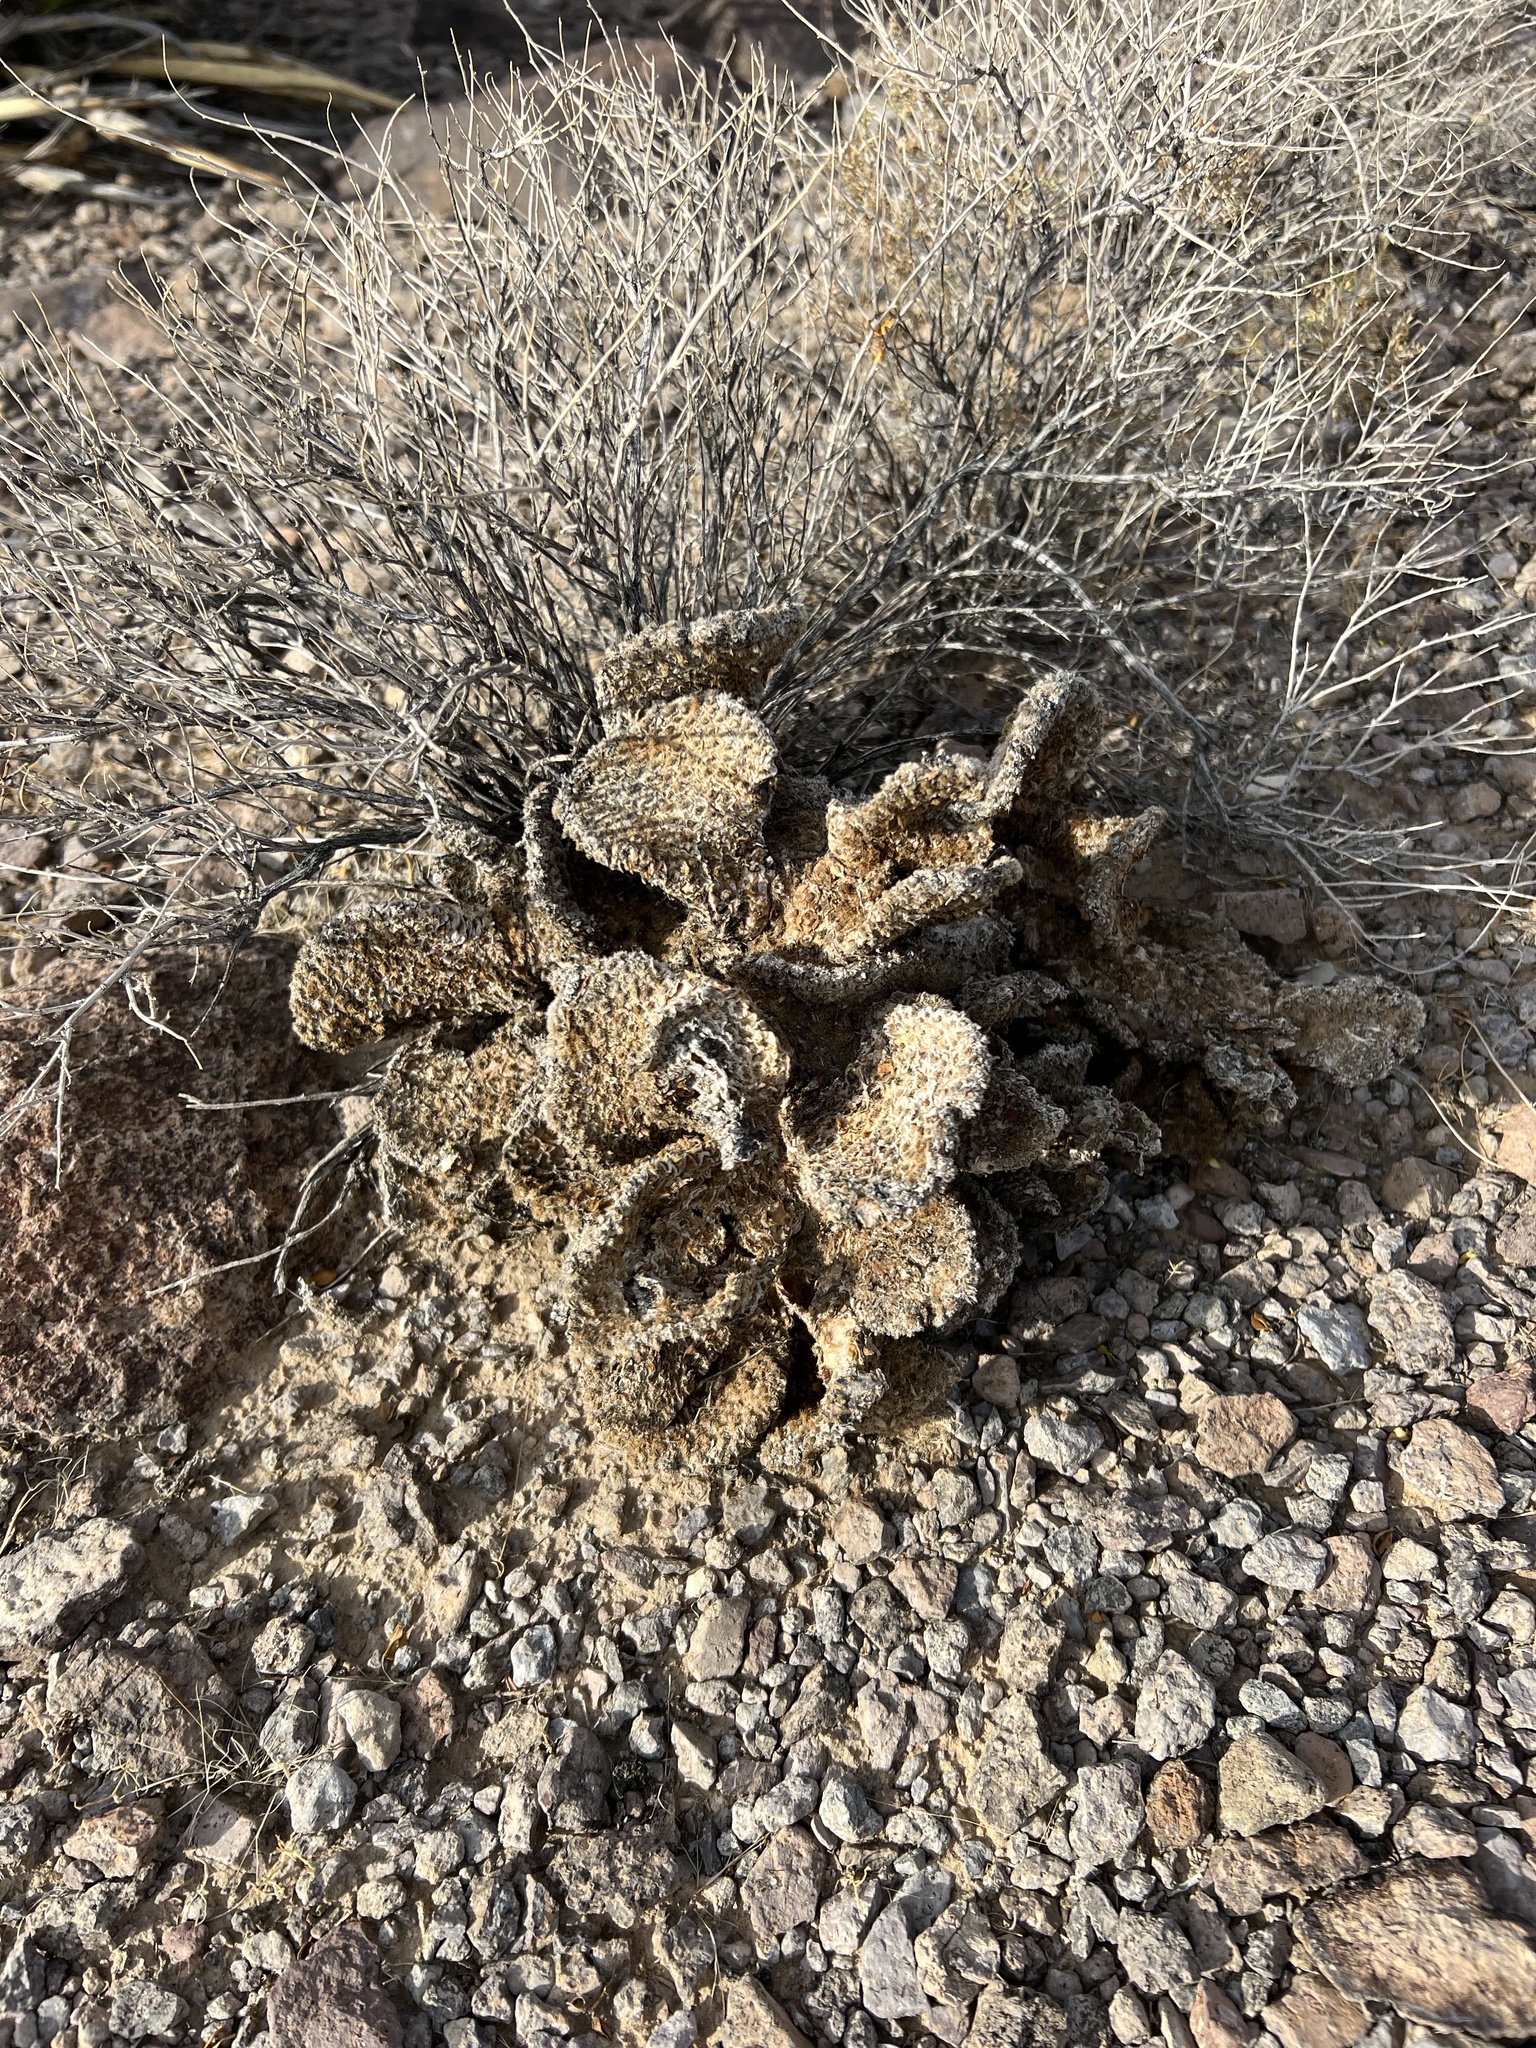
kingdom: Plantae
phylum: Tracheophyta
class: Magnoliopsida
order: Caryophyllales
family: Cactaceae
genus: Opuntia
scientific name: Opuntia basilaris
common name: Beavertail prickly-pear
